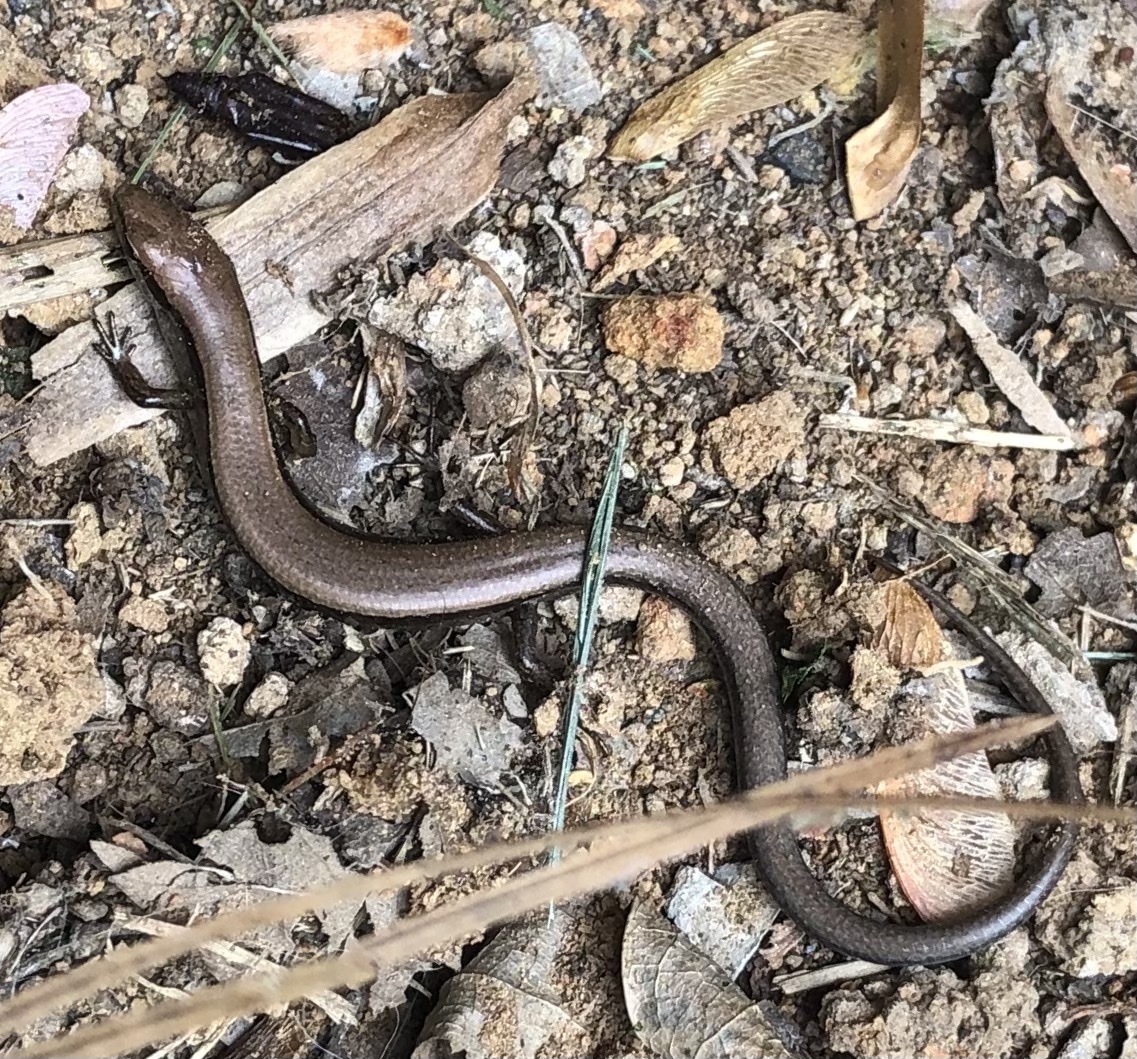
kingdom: Animalia
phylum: Chordata
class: Squamata
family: Scincidae
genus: Scincella
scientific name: Scincella lateralis
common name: Ground skink
